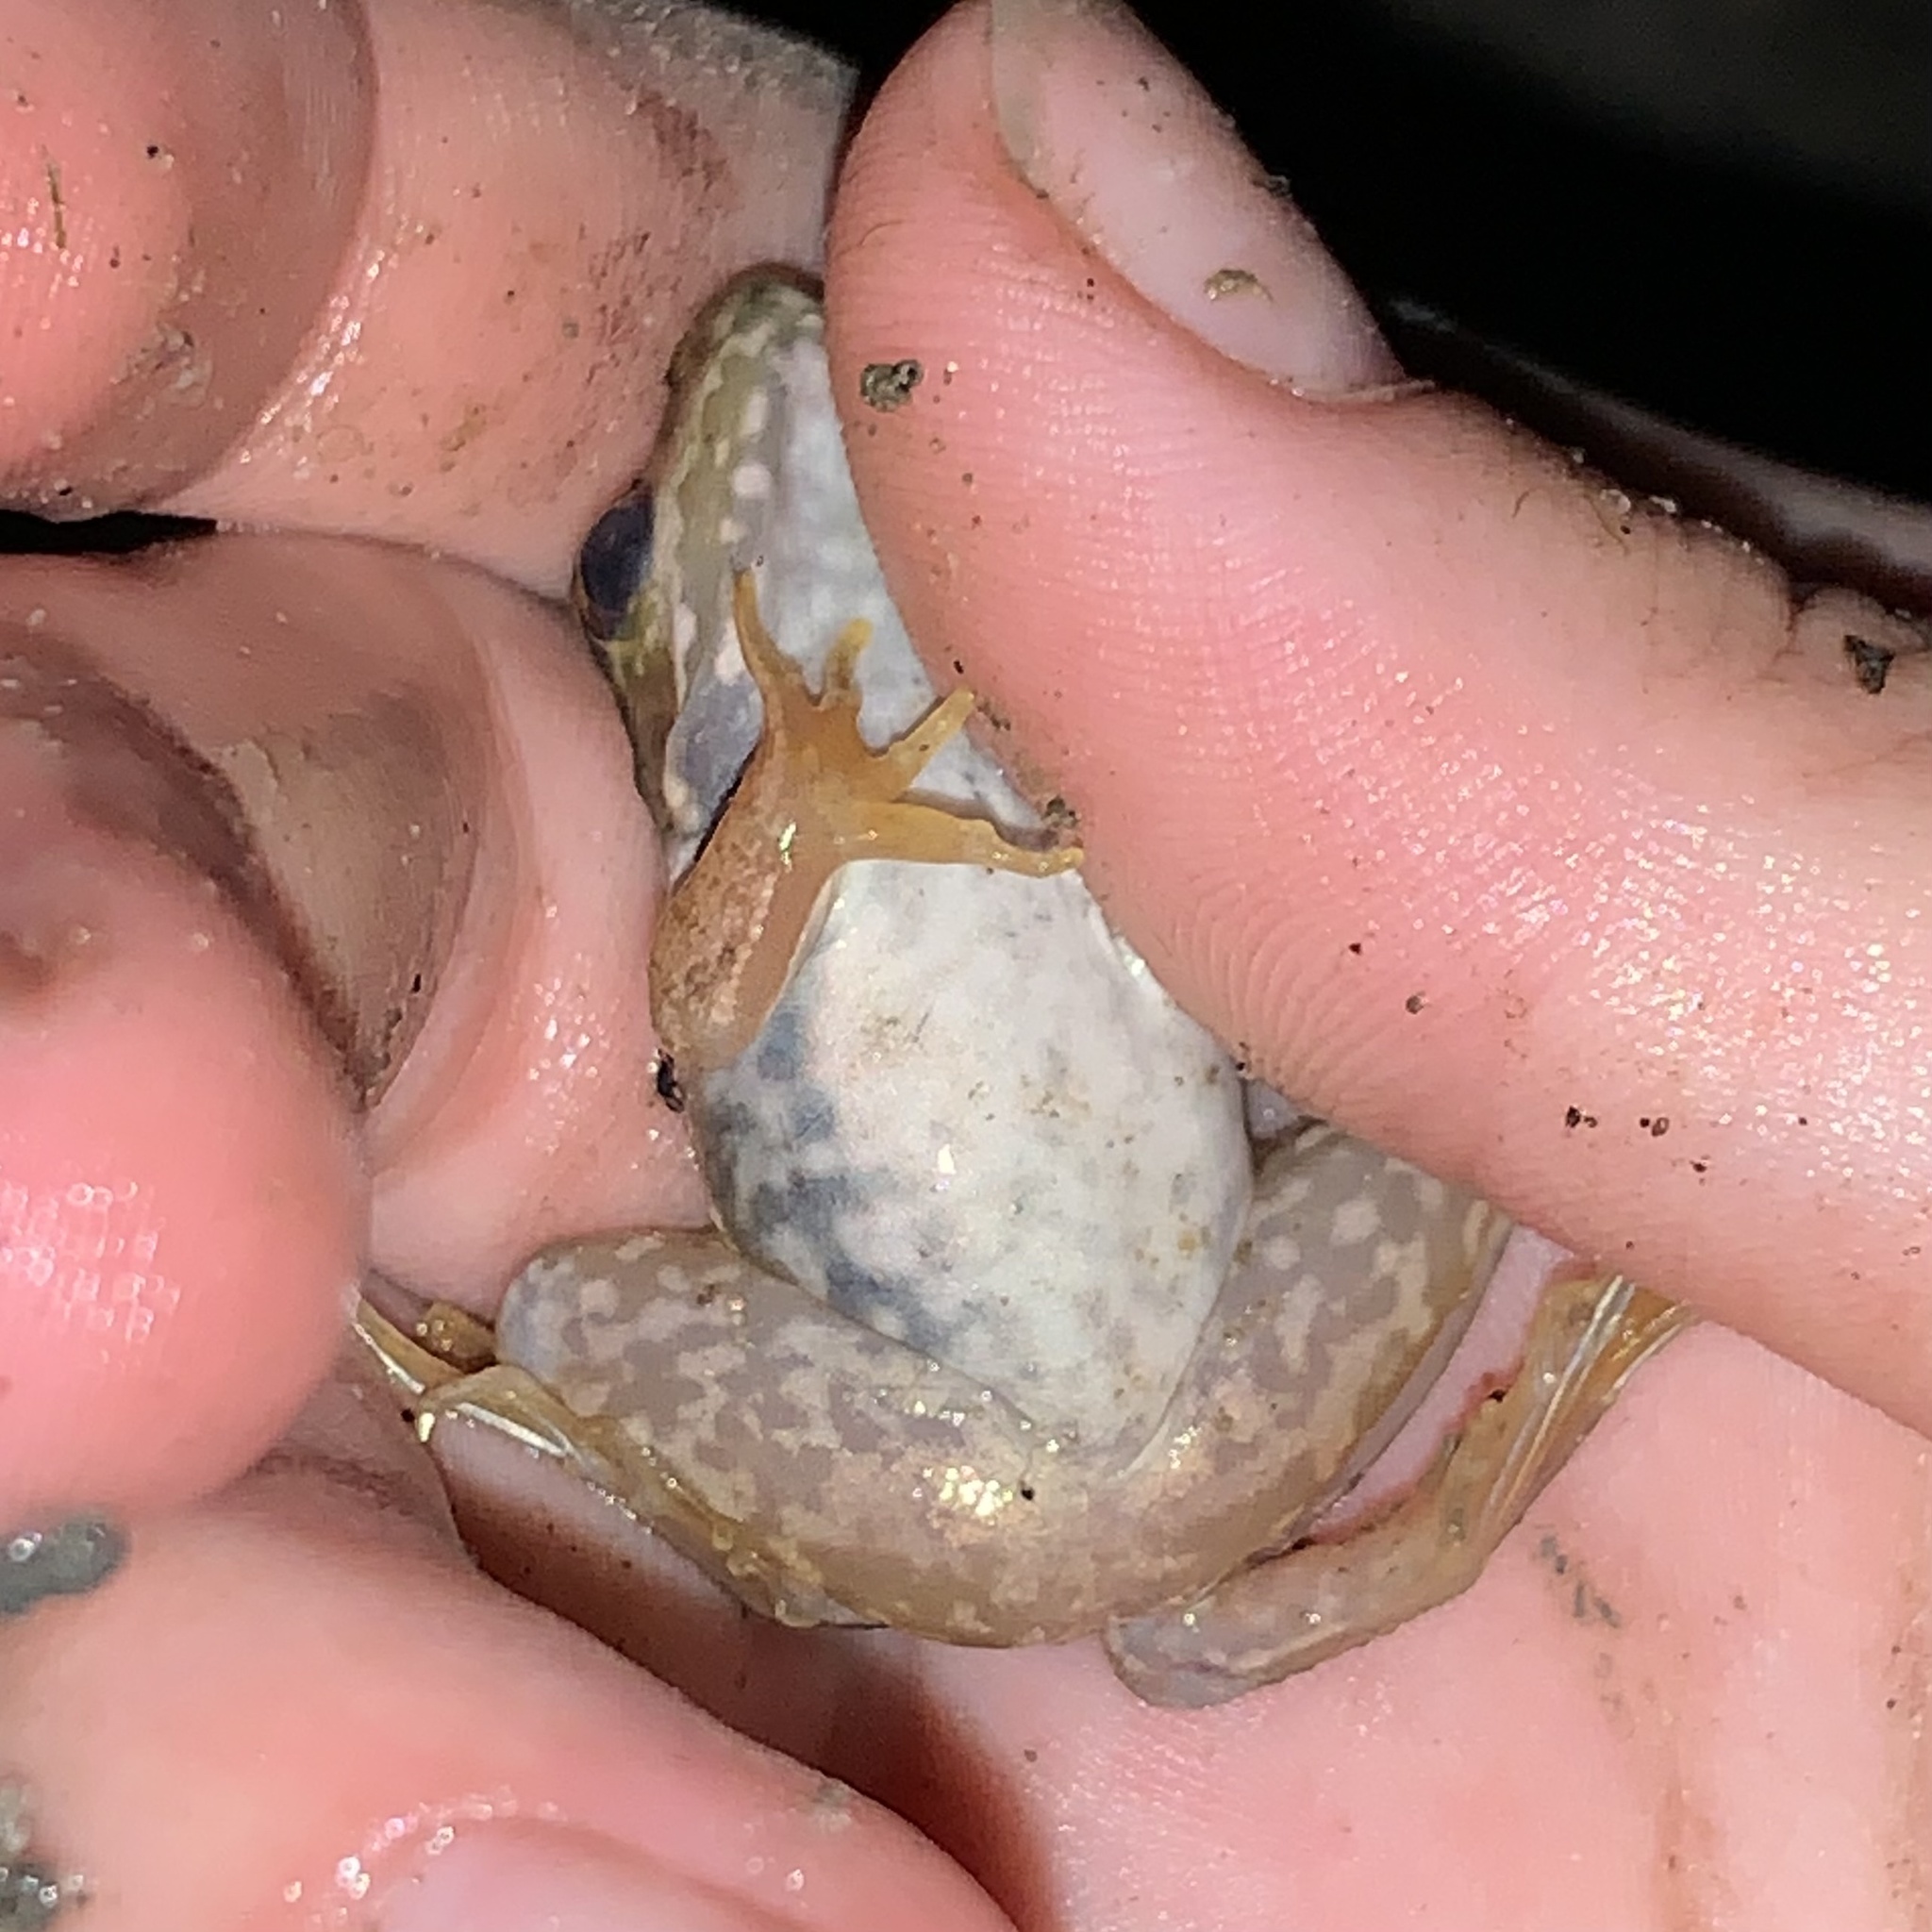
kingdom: Animalia
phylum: Chordata
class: Amphibia
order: Anura
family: Ranidae
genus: Lithobates
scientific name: Lithobates clamitans
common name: Green frog
